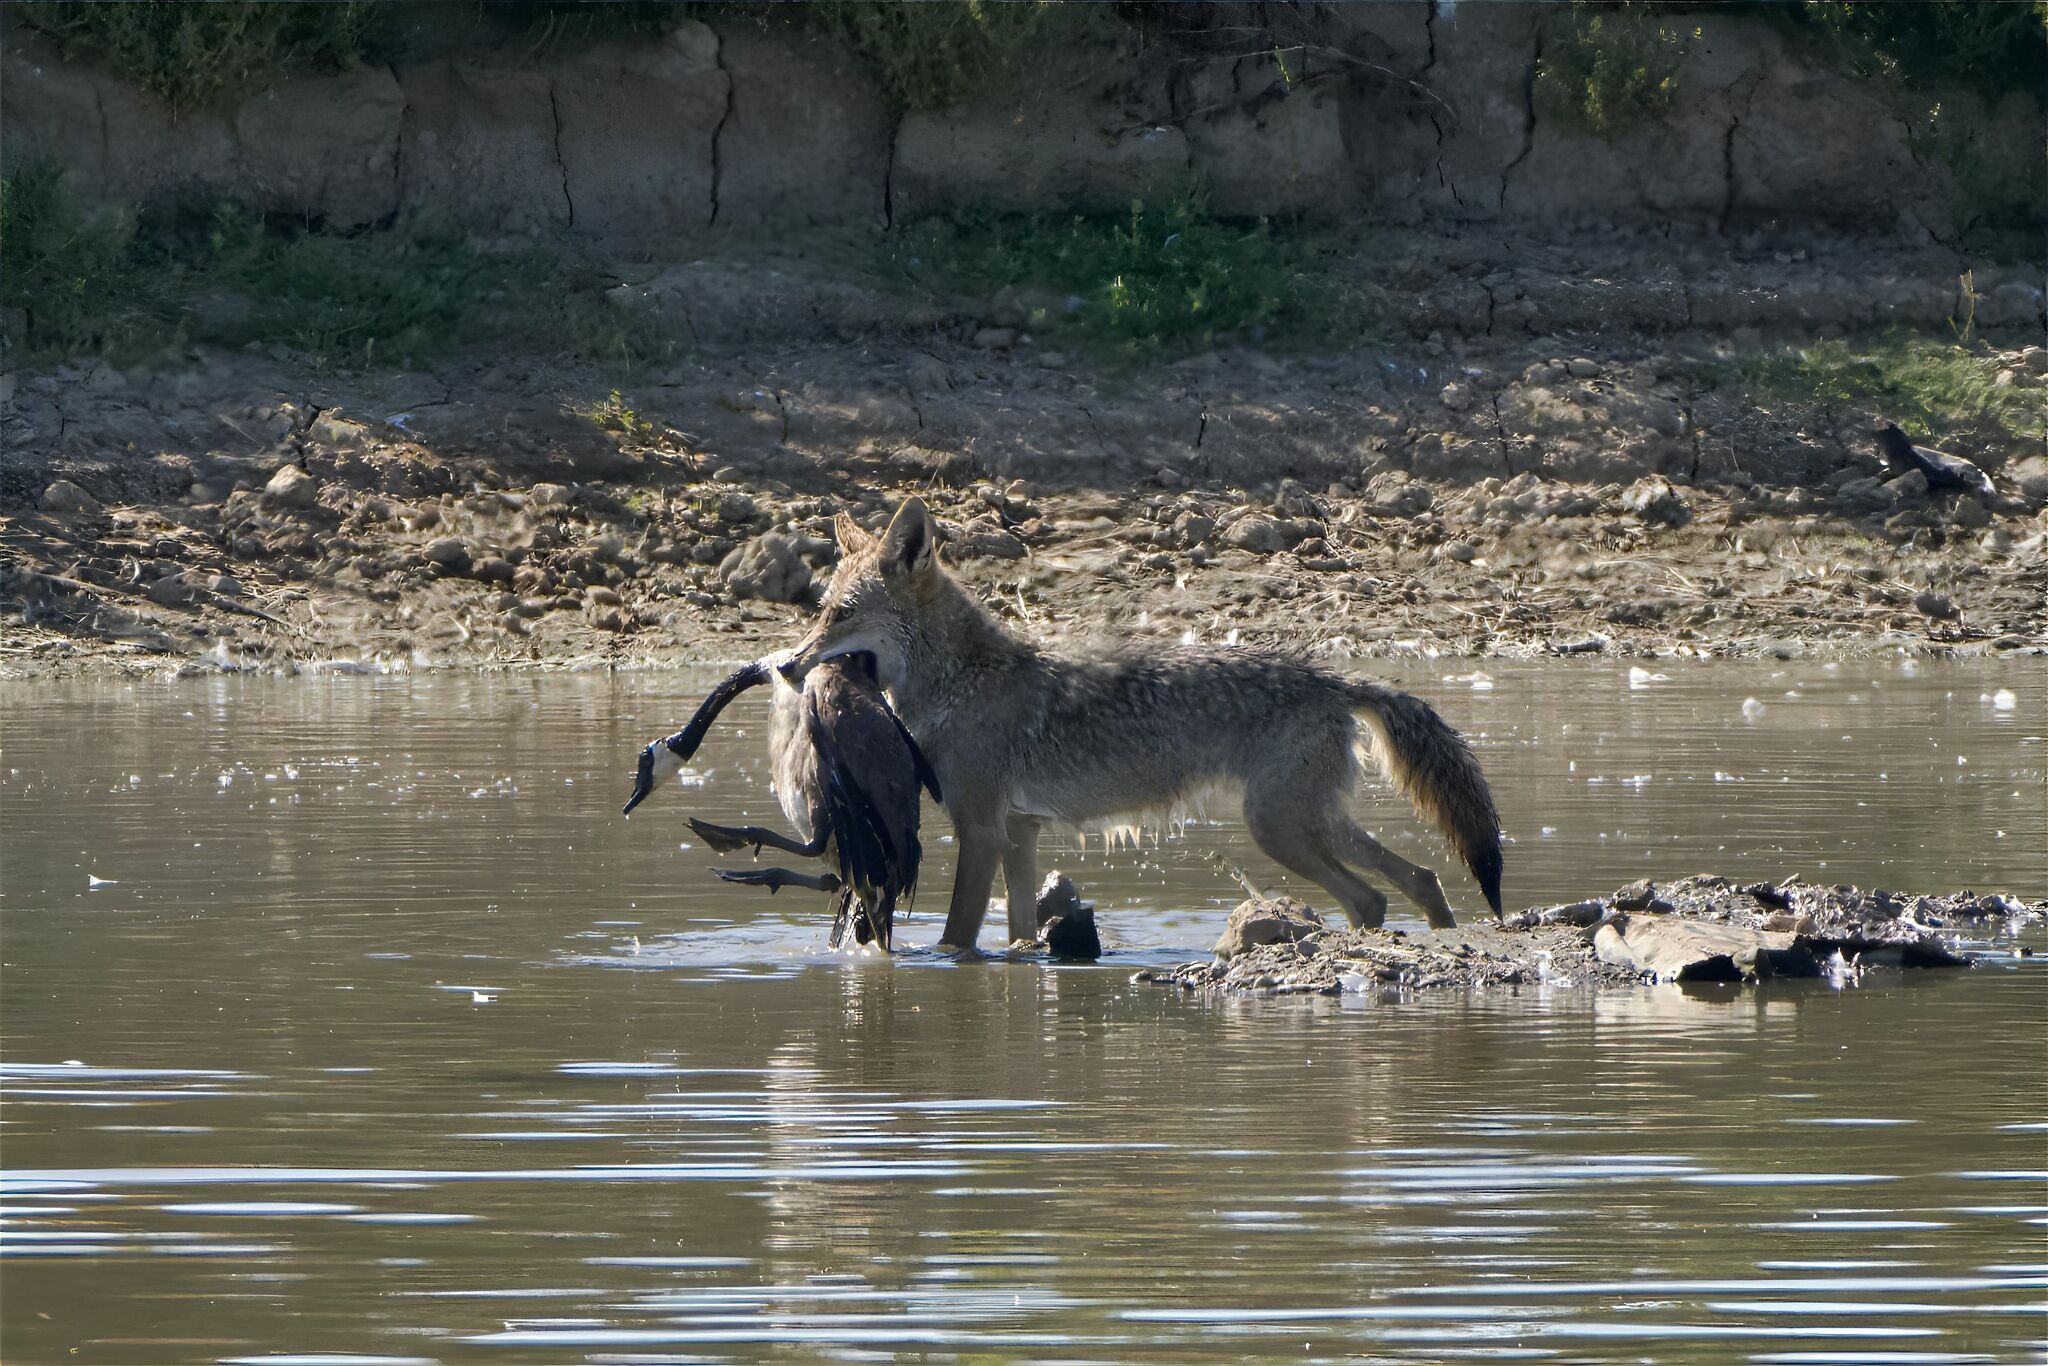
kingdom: Animalia
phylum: Chordata
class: Aves
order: Anseriformes
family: Anatidae
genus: Branta
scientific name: Branta canadensis
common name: Canada goose
